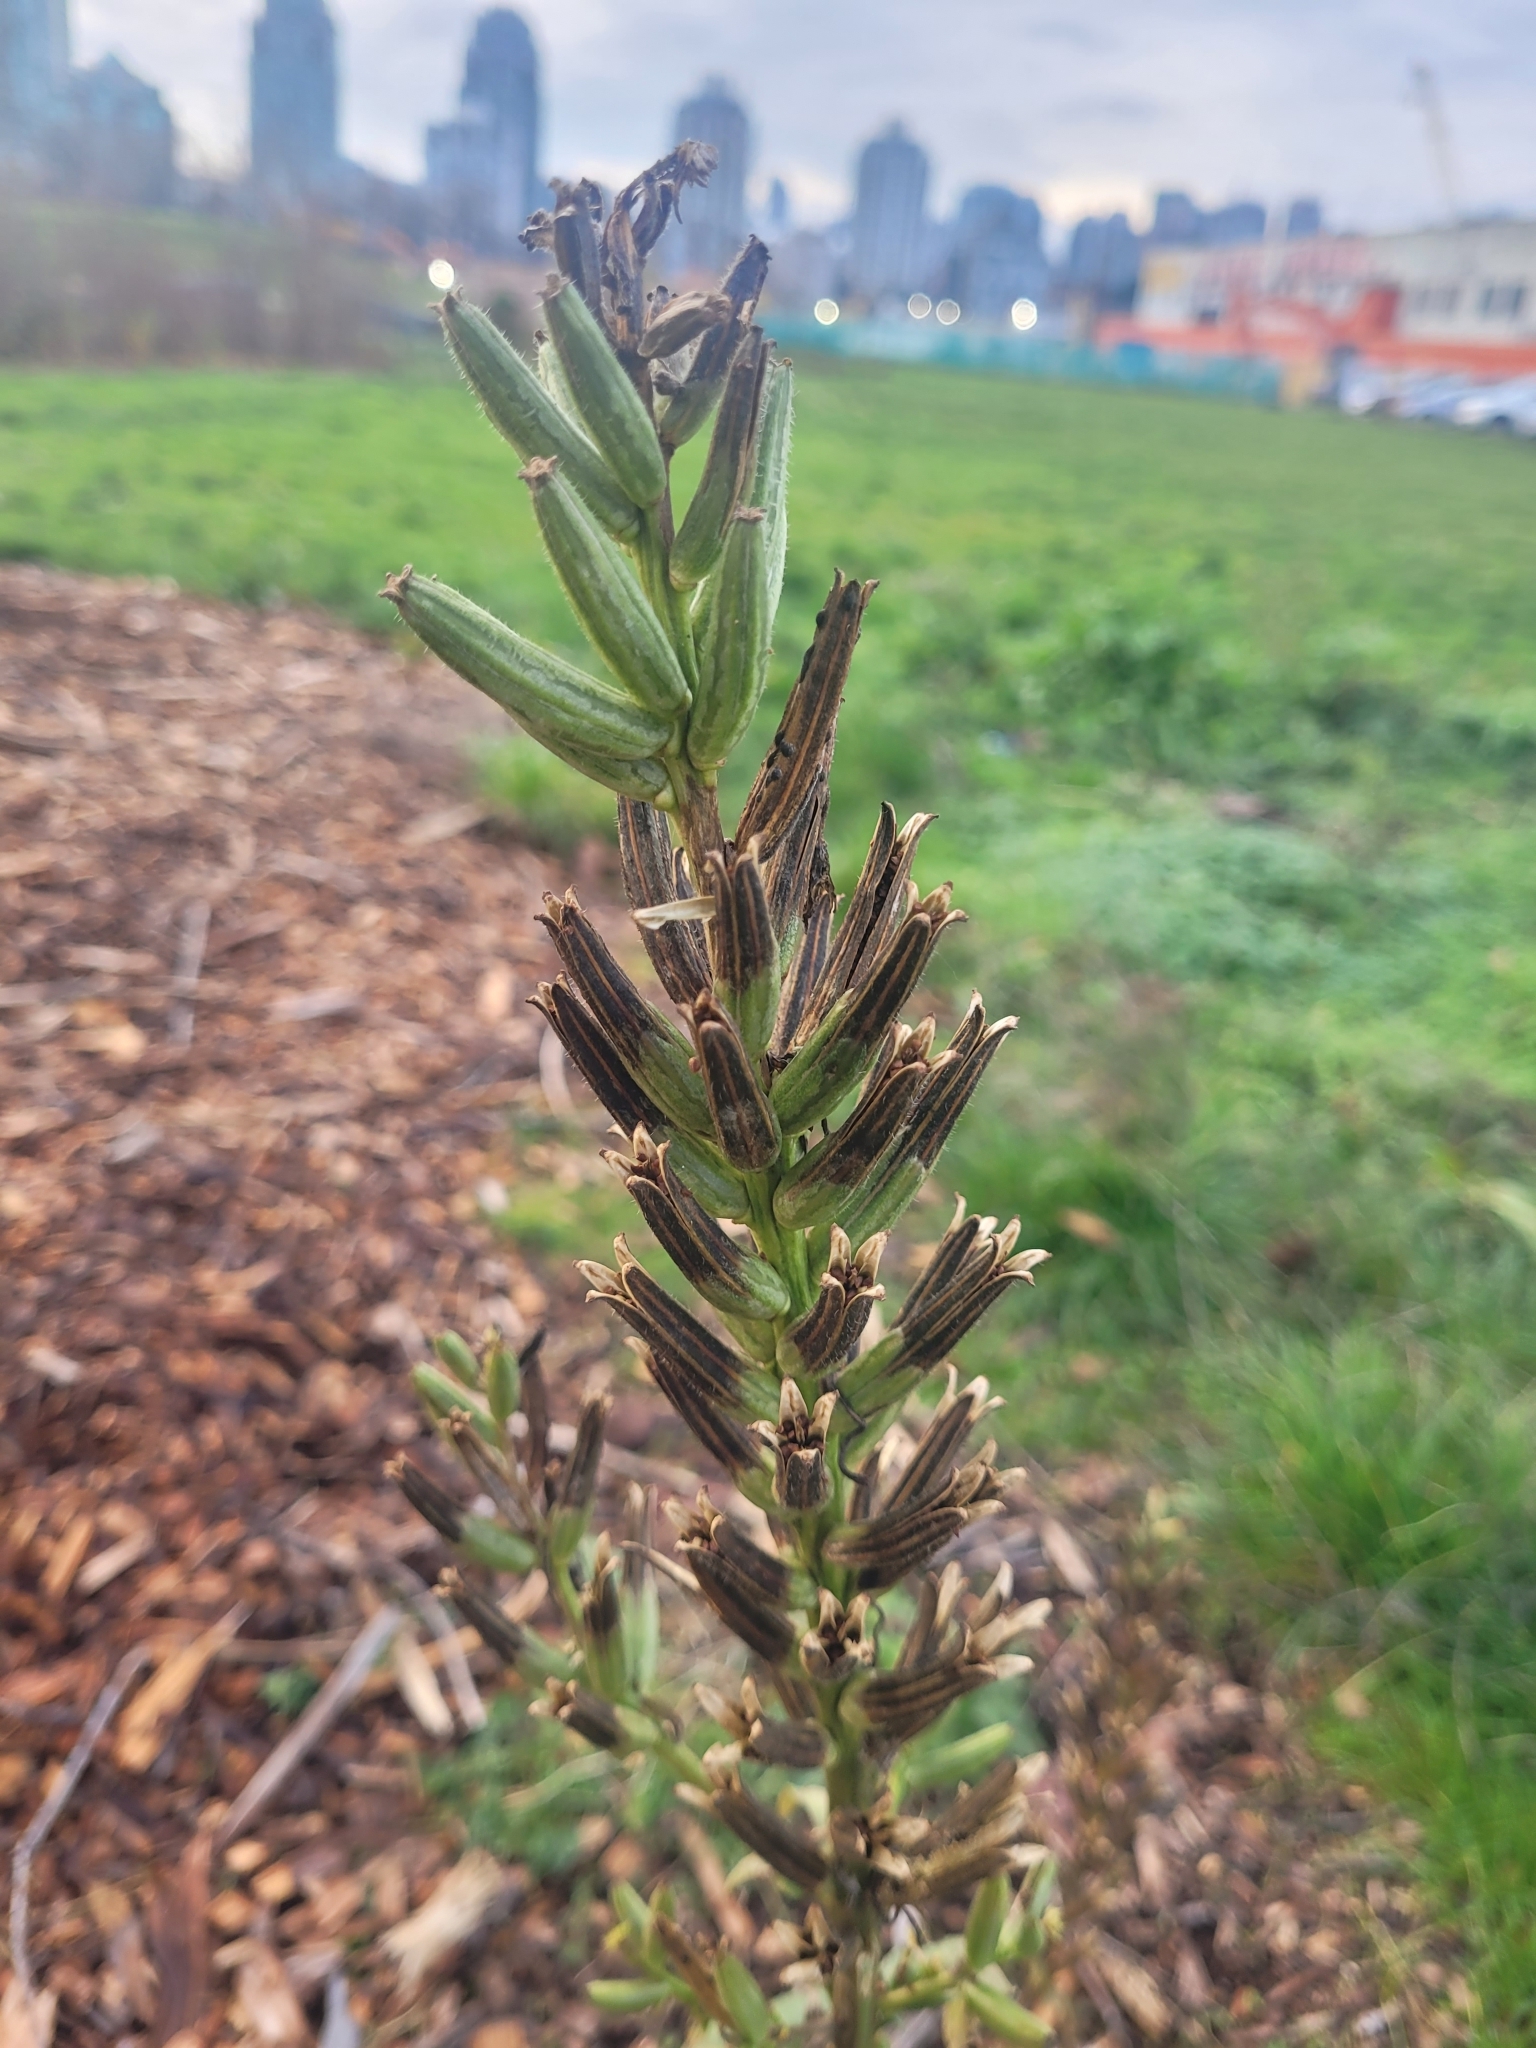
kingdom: Plantae
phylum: Tracheophyta
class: Magnoliopsida
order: Myrtales
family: Onagraceae
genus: Oenothera
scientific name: Oenothera biennis
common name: Common evening-primrose
